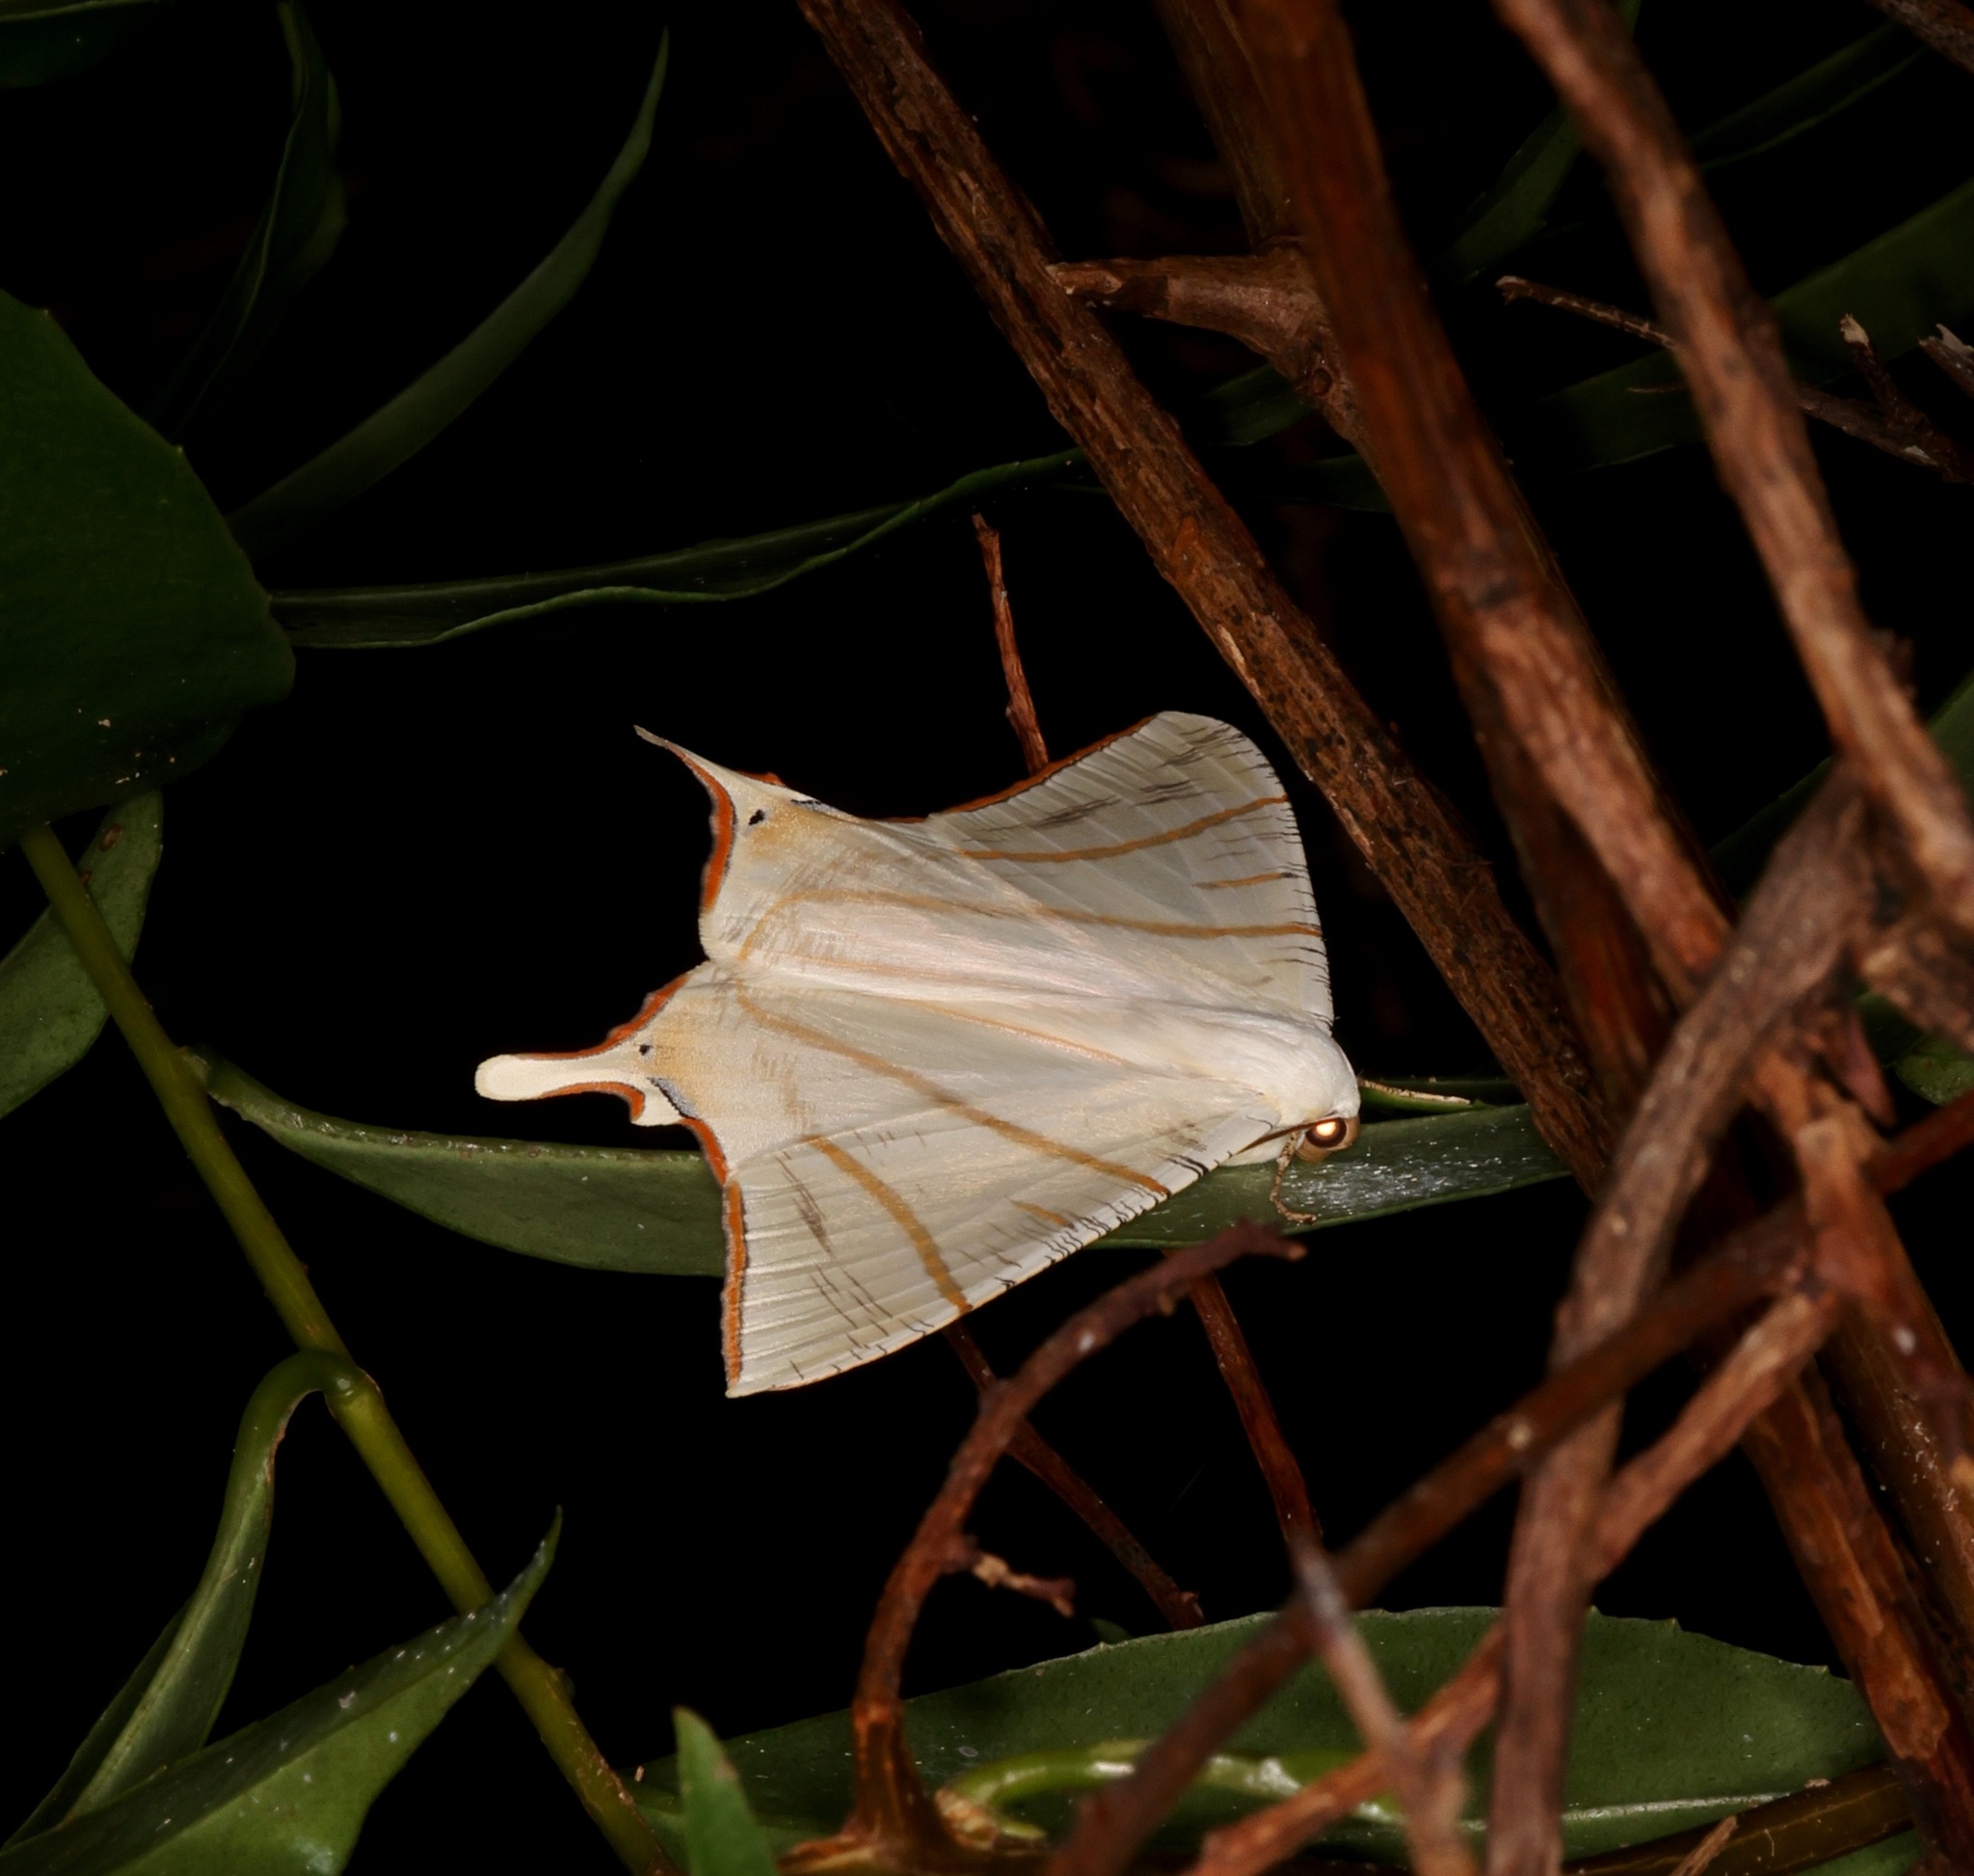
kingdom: Animalia
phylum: Arthropoda
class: Insecta
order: Lepidoptera
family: Geometridae
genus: Ourapteryx
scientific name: Ourapteryx clara
